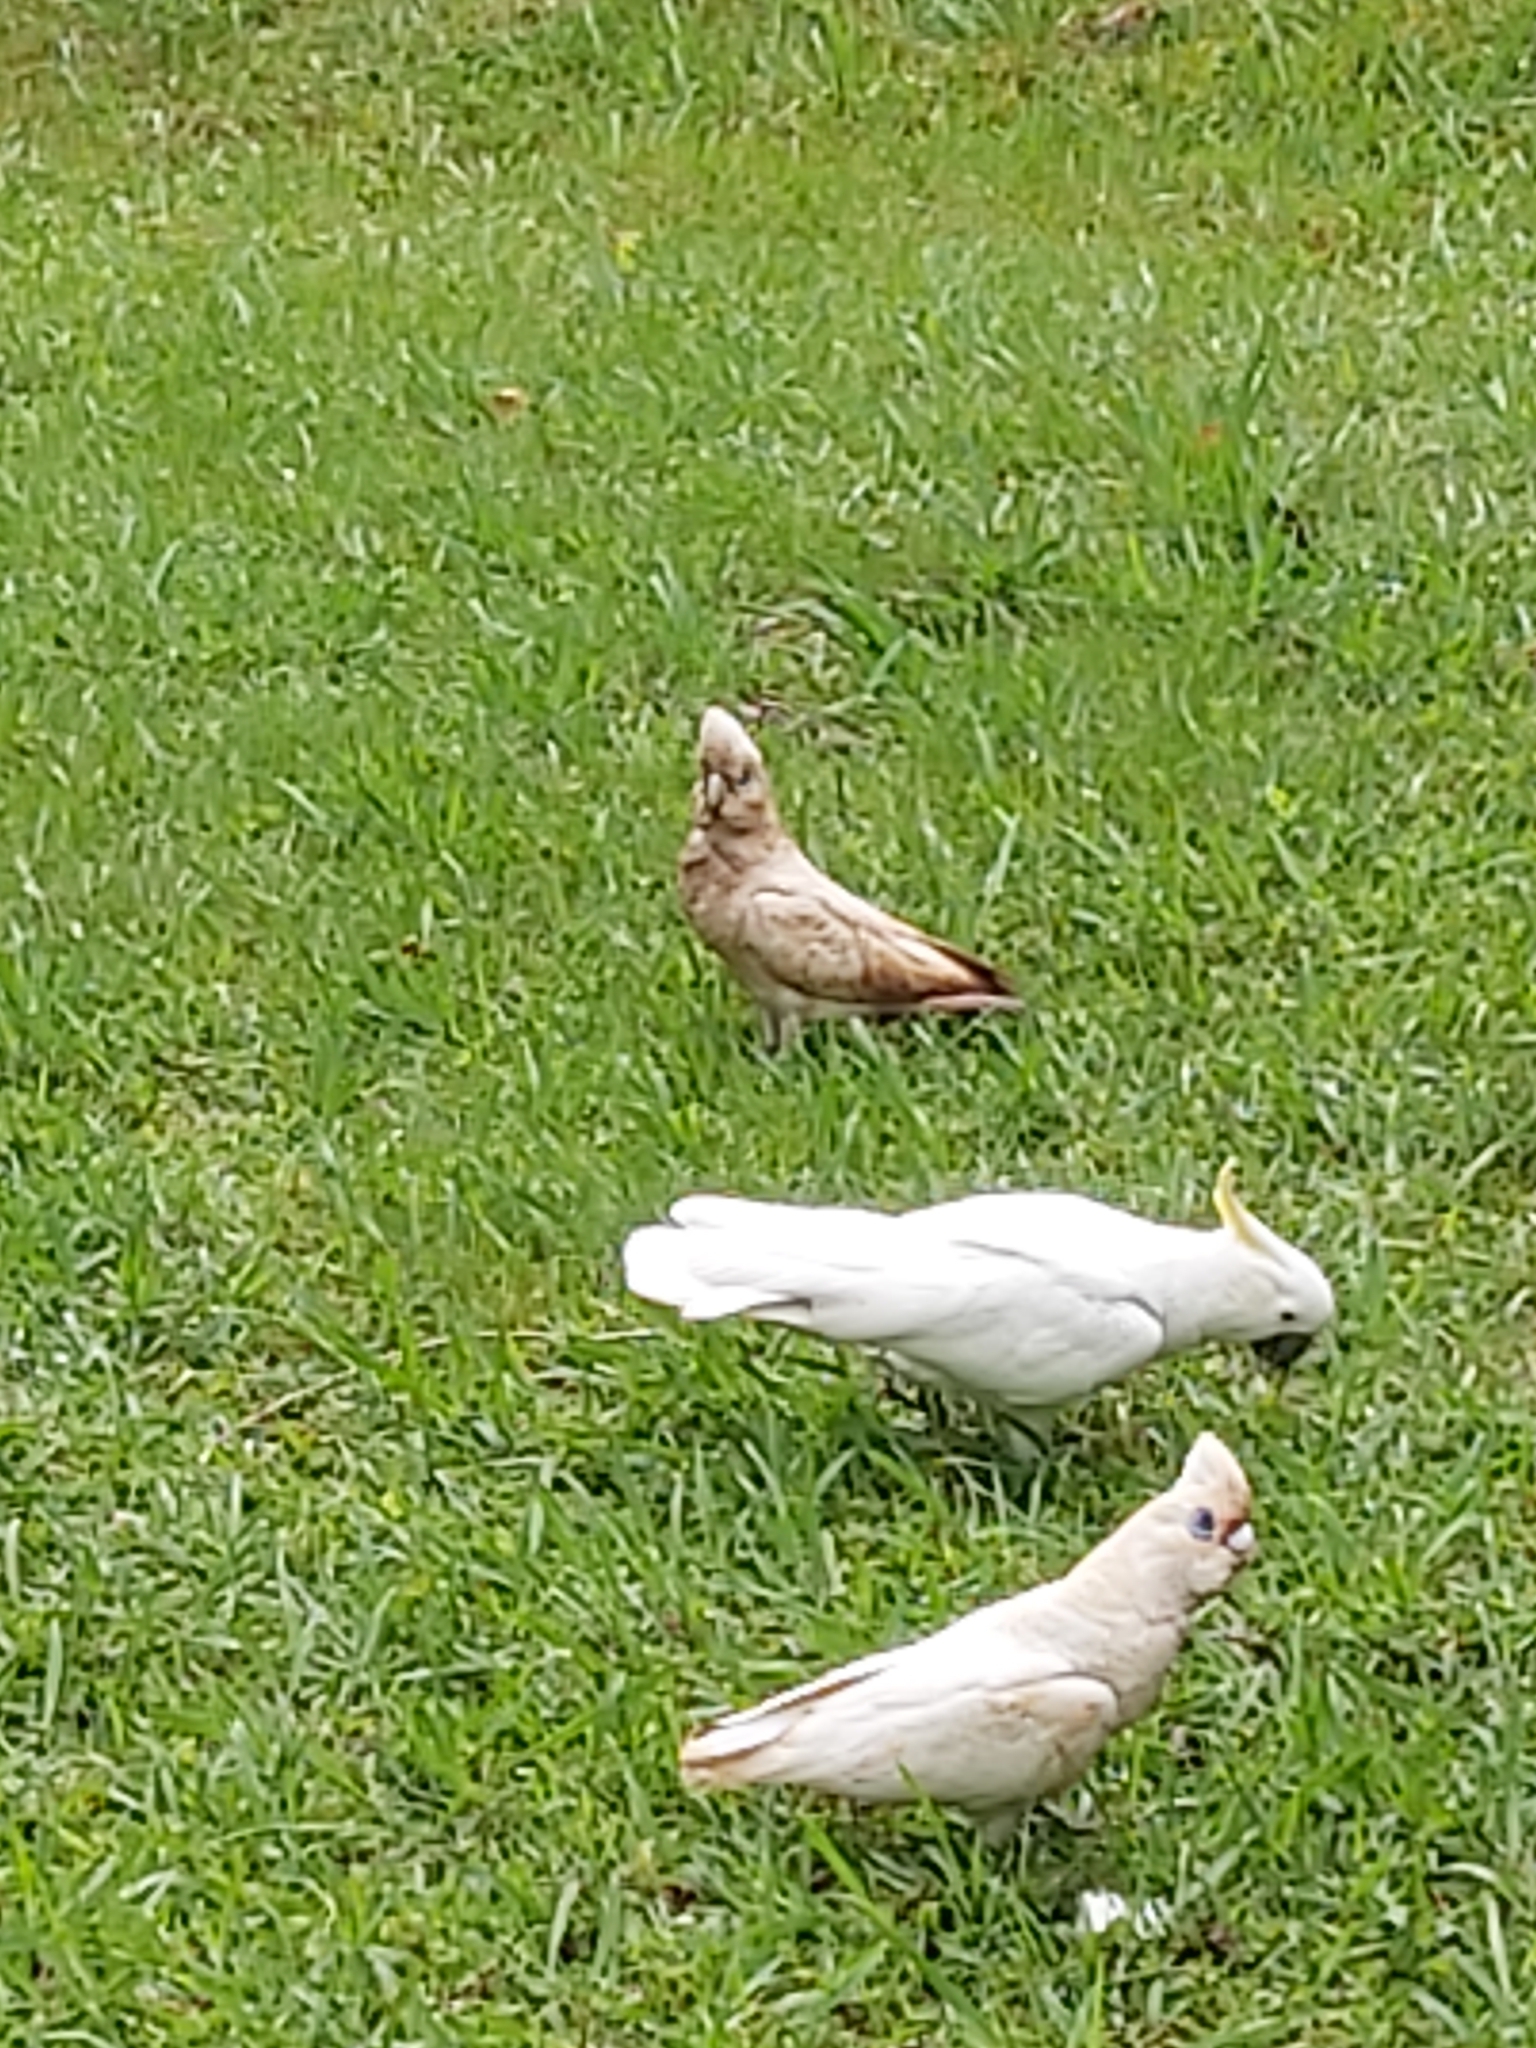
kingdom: Animalia
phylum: Chordata
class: Aves
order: Psittaciformes
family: Psittacidae
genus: Cacatua
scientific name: Cacatua sanguinea
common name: Little corella
